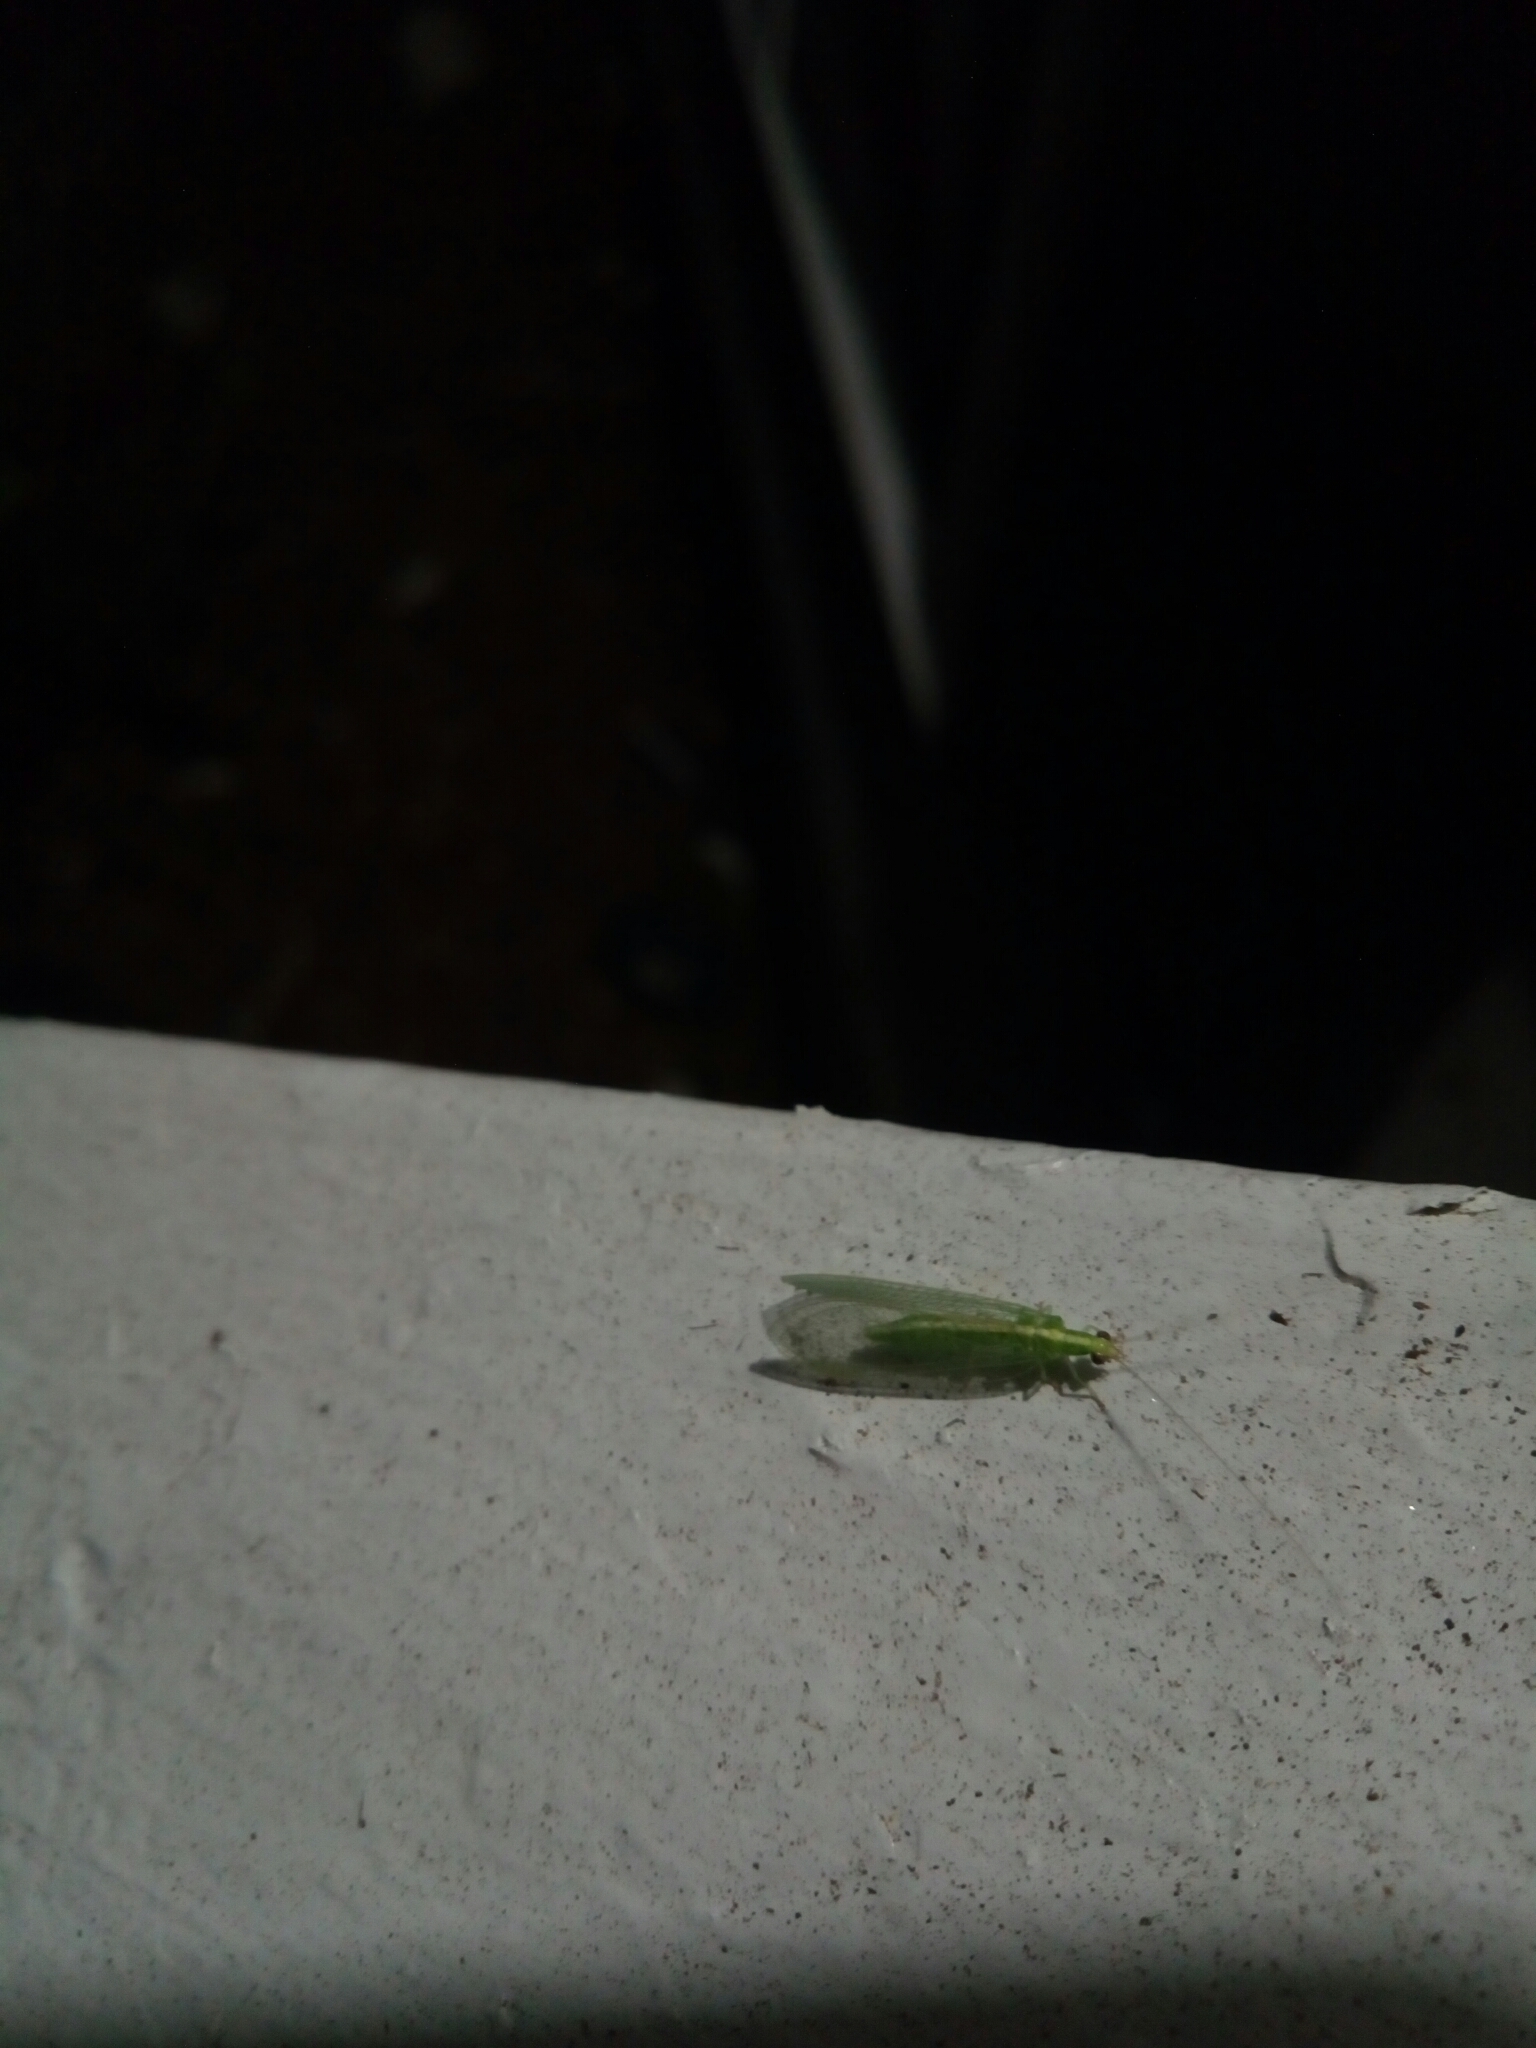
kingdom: Animalia
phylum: Arthropoda
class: Insecta
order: Neuroptera
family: Chrysopidae
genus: Chrysoperla
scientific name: Chrysoperla
